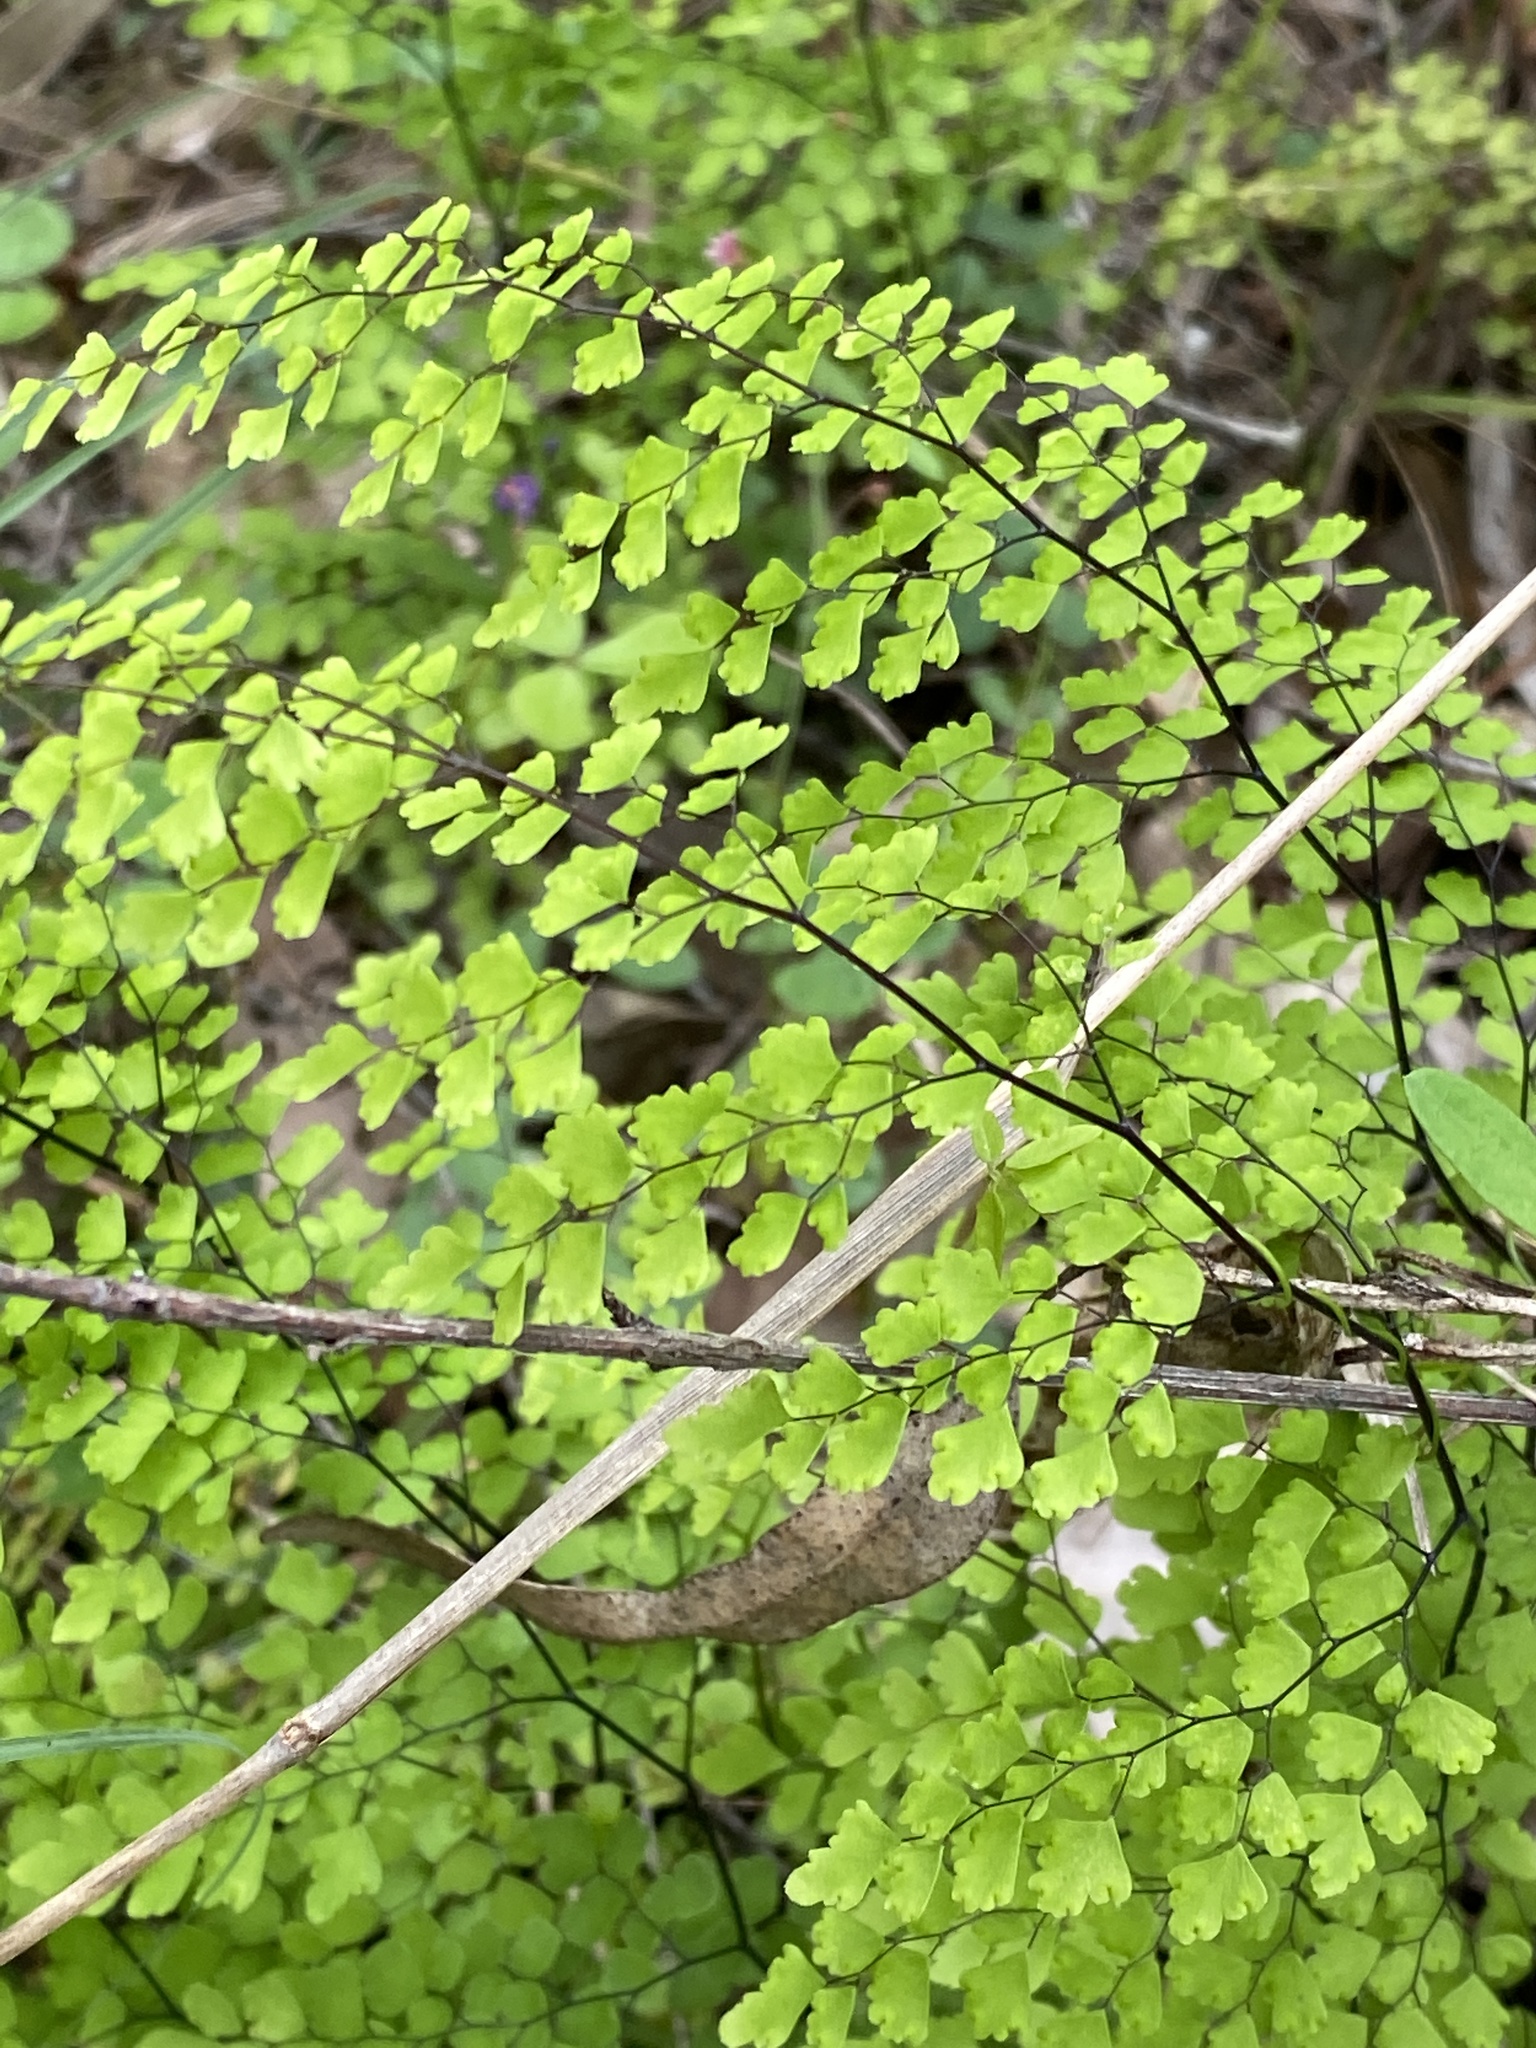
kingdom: Plantae
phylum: Tracheophyta
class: Polypodiopsida
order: Polypodiales
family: Pteridaceae
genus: Adiantum
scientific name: Adiantum atroviride
